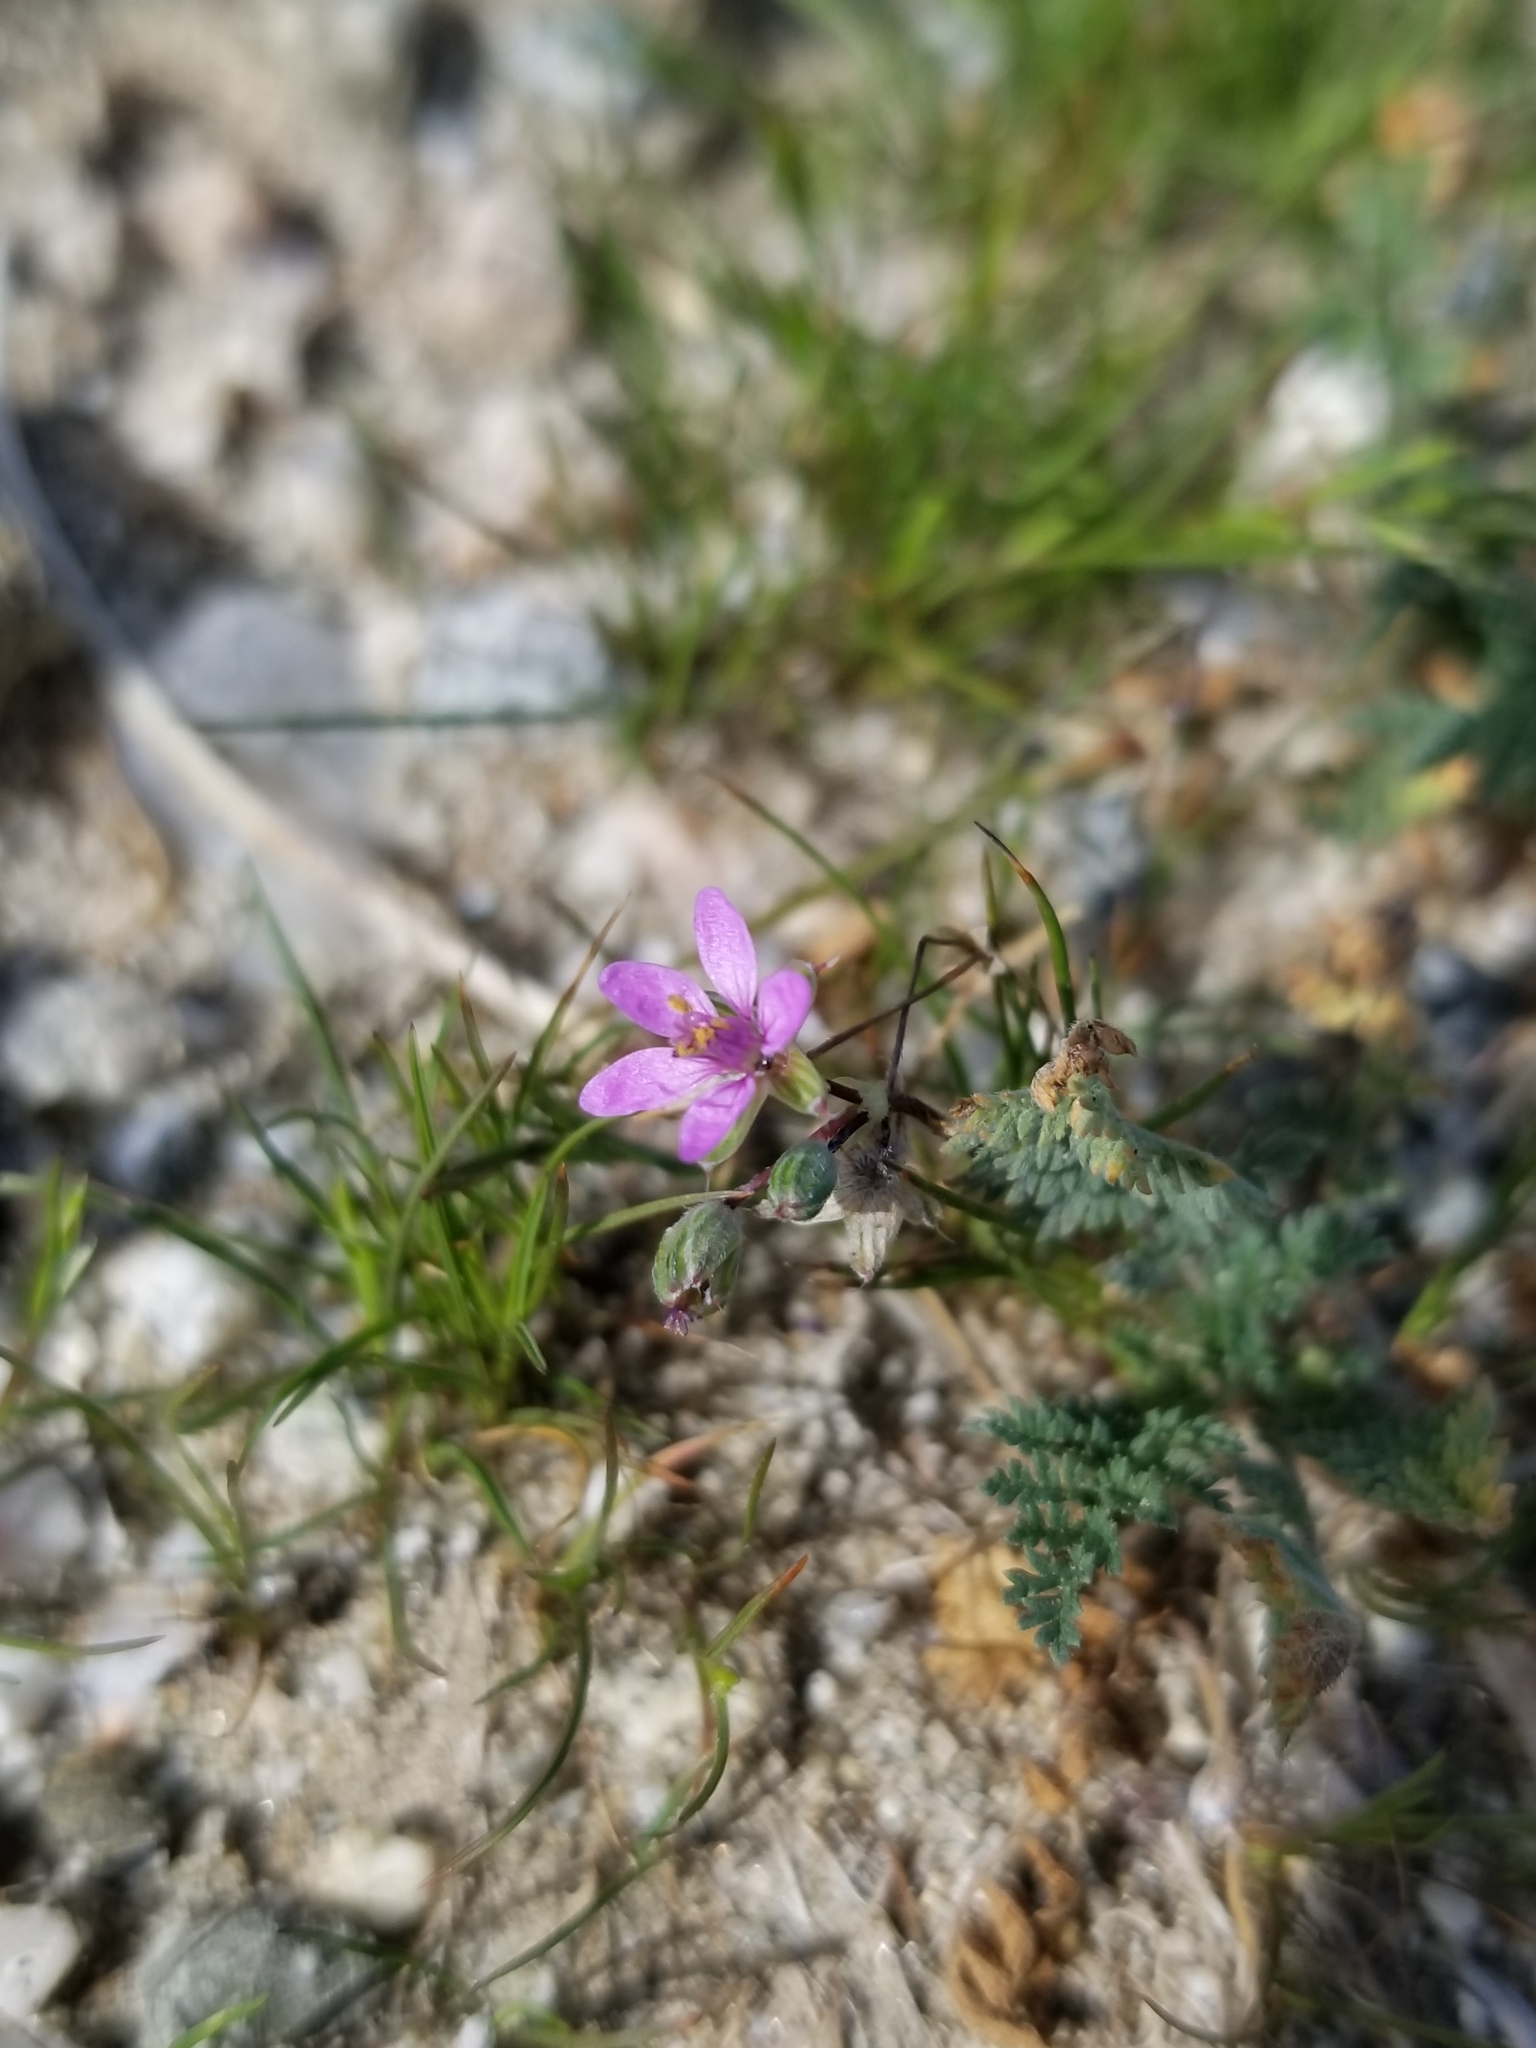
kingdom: Plantae
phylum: Tracheophyta
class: Magnoliopsida
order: Geraniales
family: Geraniaceae
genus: Erodium
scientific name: Erodium cicutarium
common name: Common stork's-bill
